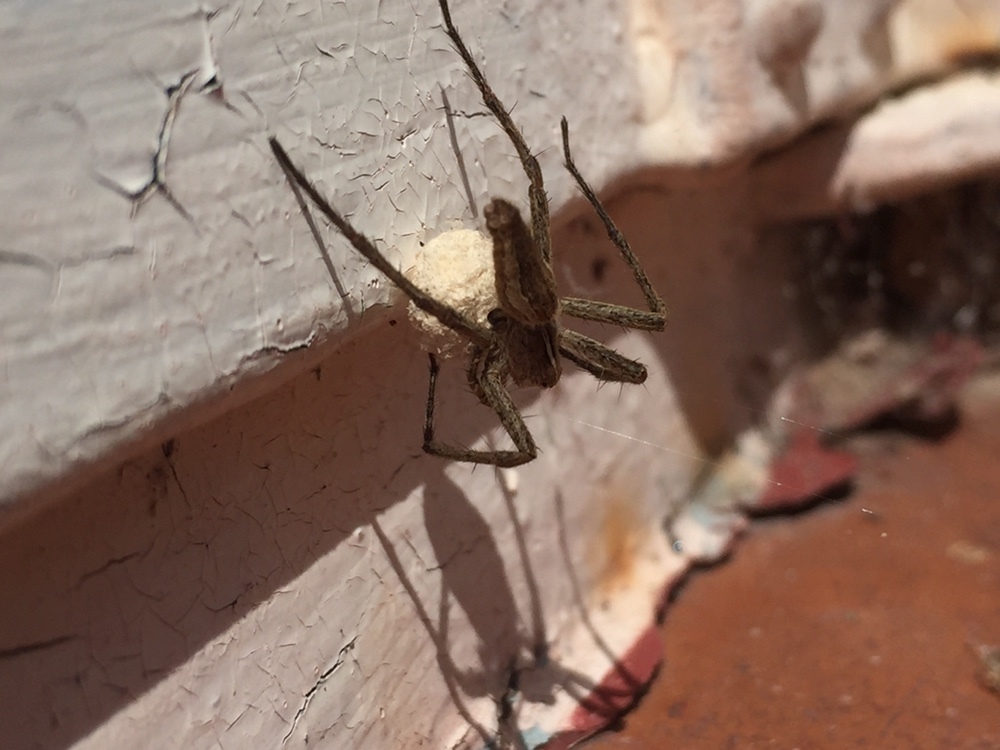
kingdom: Animalia
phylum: Arthropoda
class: Arachnida
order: Araneae
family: Pisauridae
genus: Pisaura
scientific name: Pisaura mirabilis
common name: Tent spider
